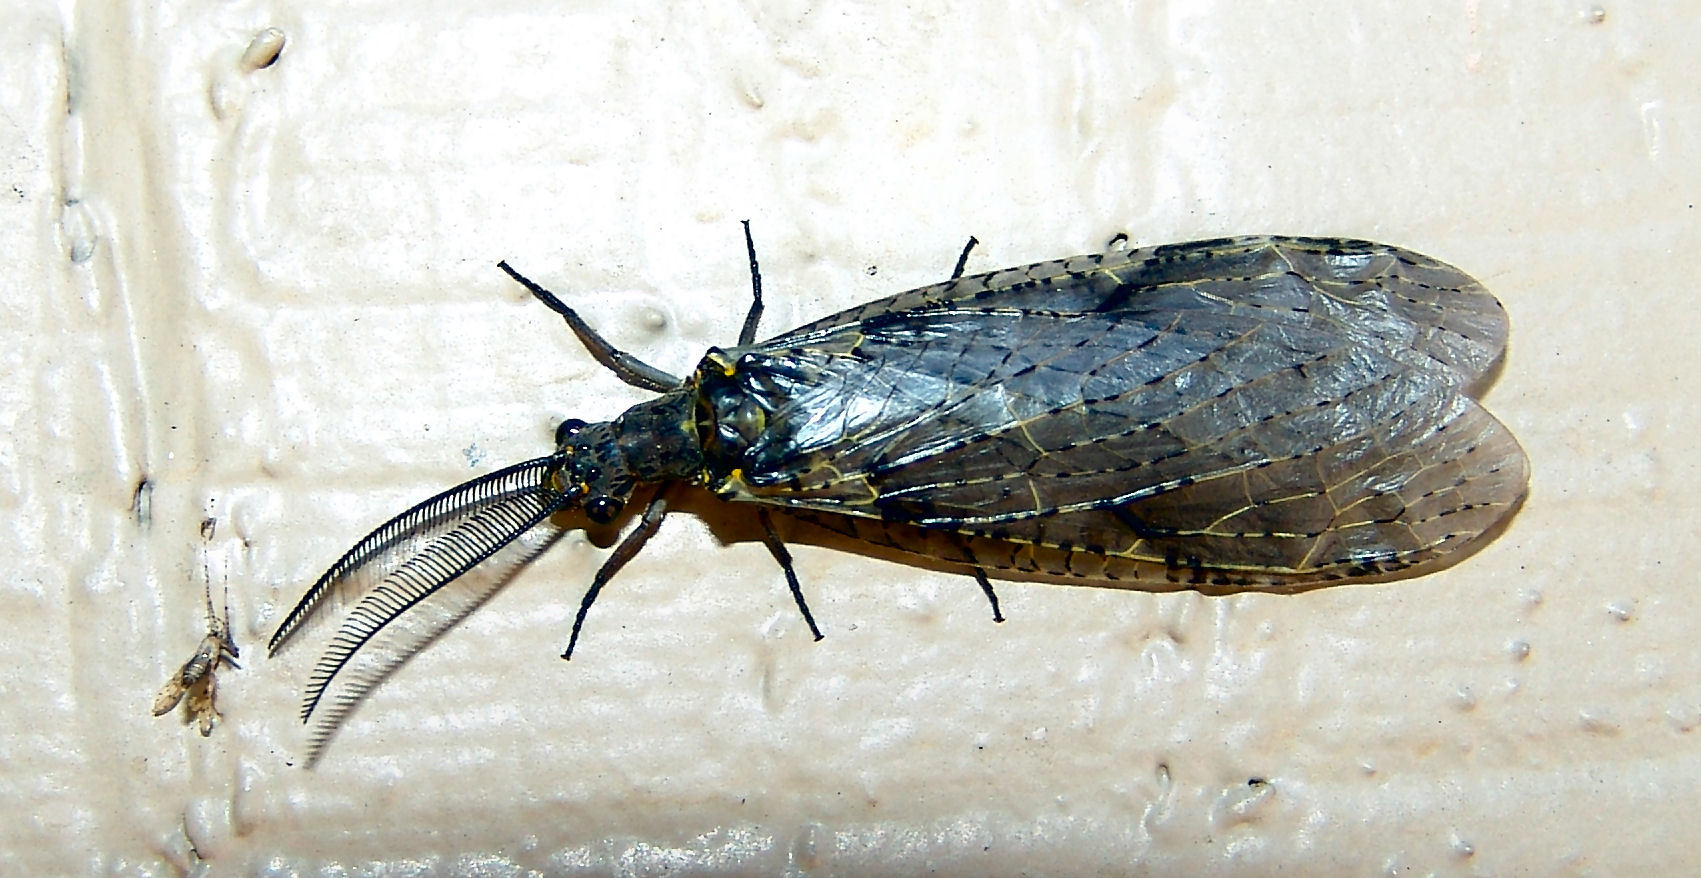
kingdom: Animalia
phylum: Arthropoda
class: Insecta
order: Megaloptera
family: Corydalidae
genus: Chauliodes
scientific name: Chauliodes rastricornis
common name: Spring fishfly
